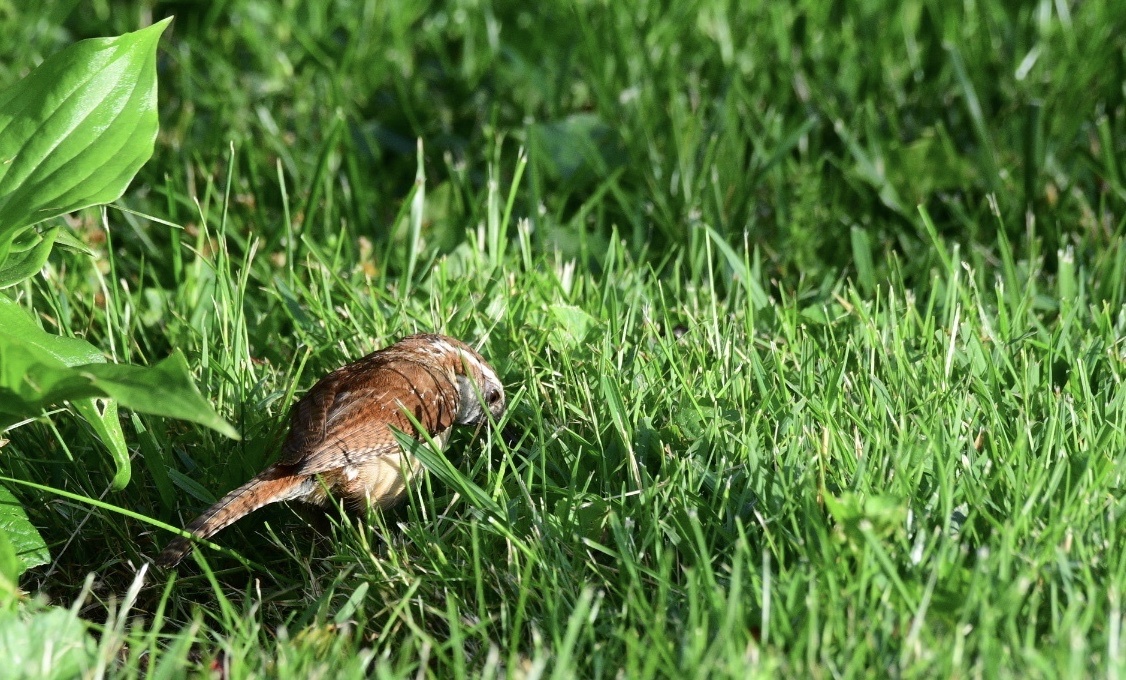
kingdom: Animalia
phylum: Chordata
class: Aves
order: Passeriformes
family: Troglodytidae
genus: Thryothorus
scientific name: Thryothorus ludovicianus
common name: Carolina wren
